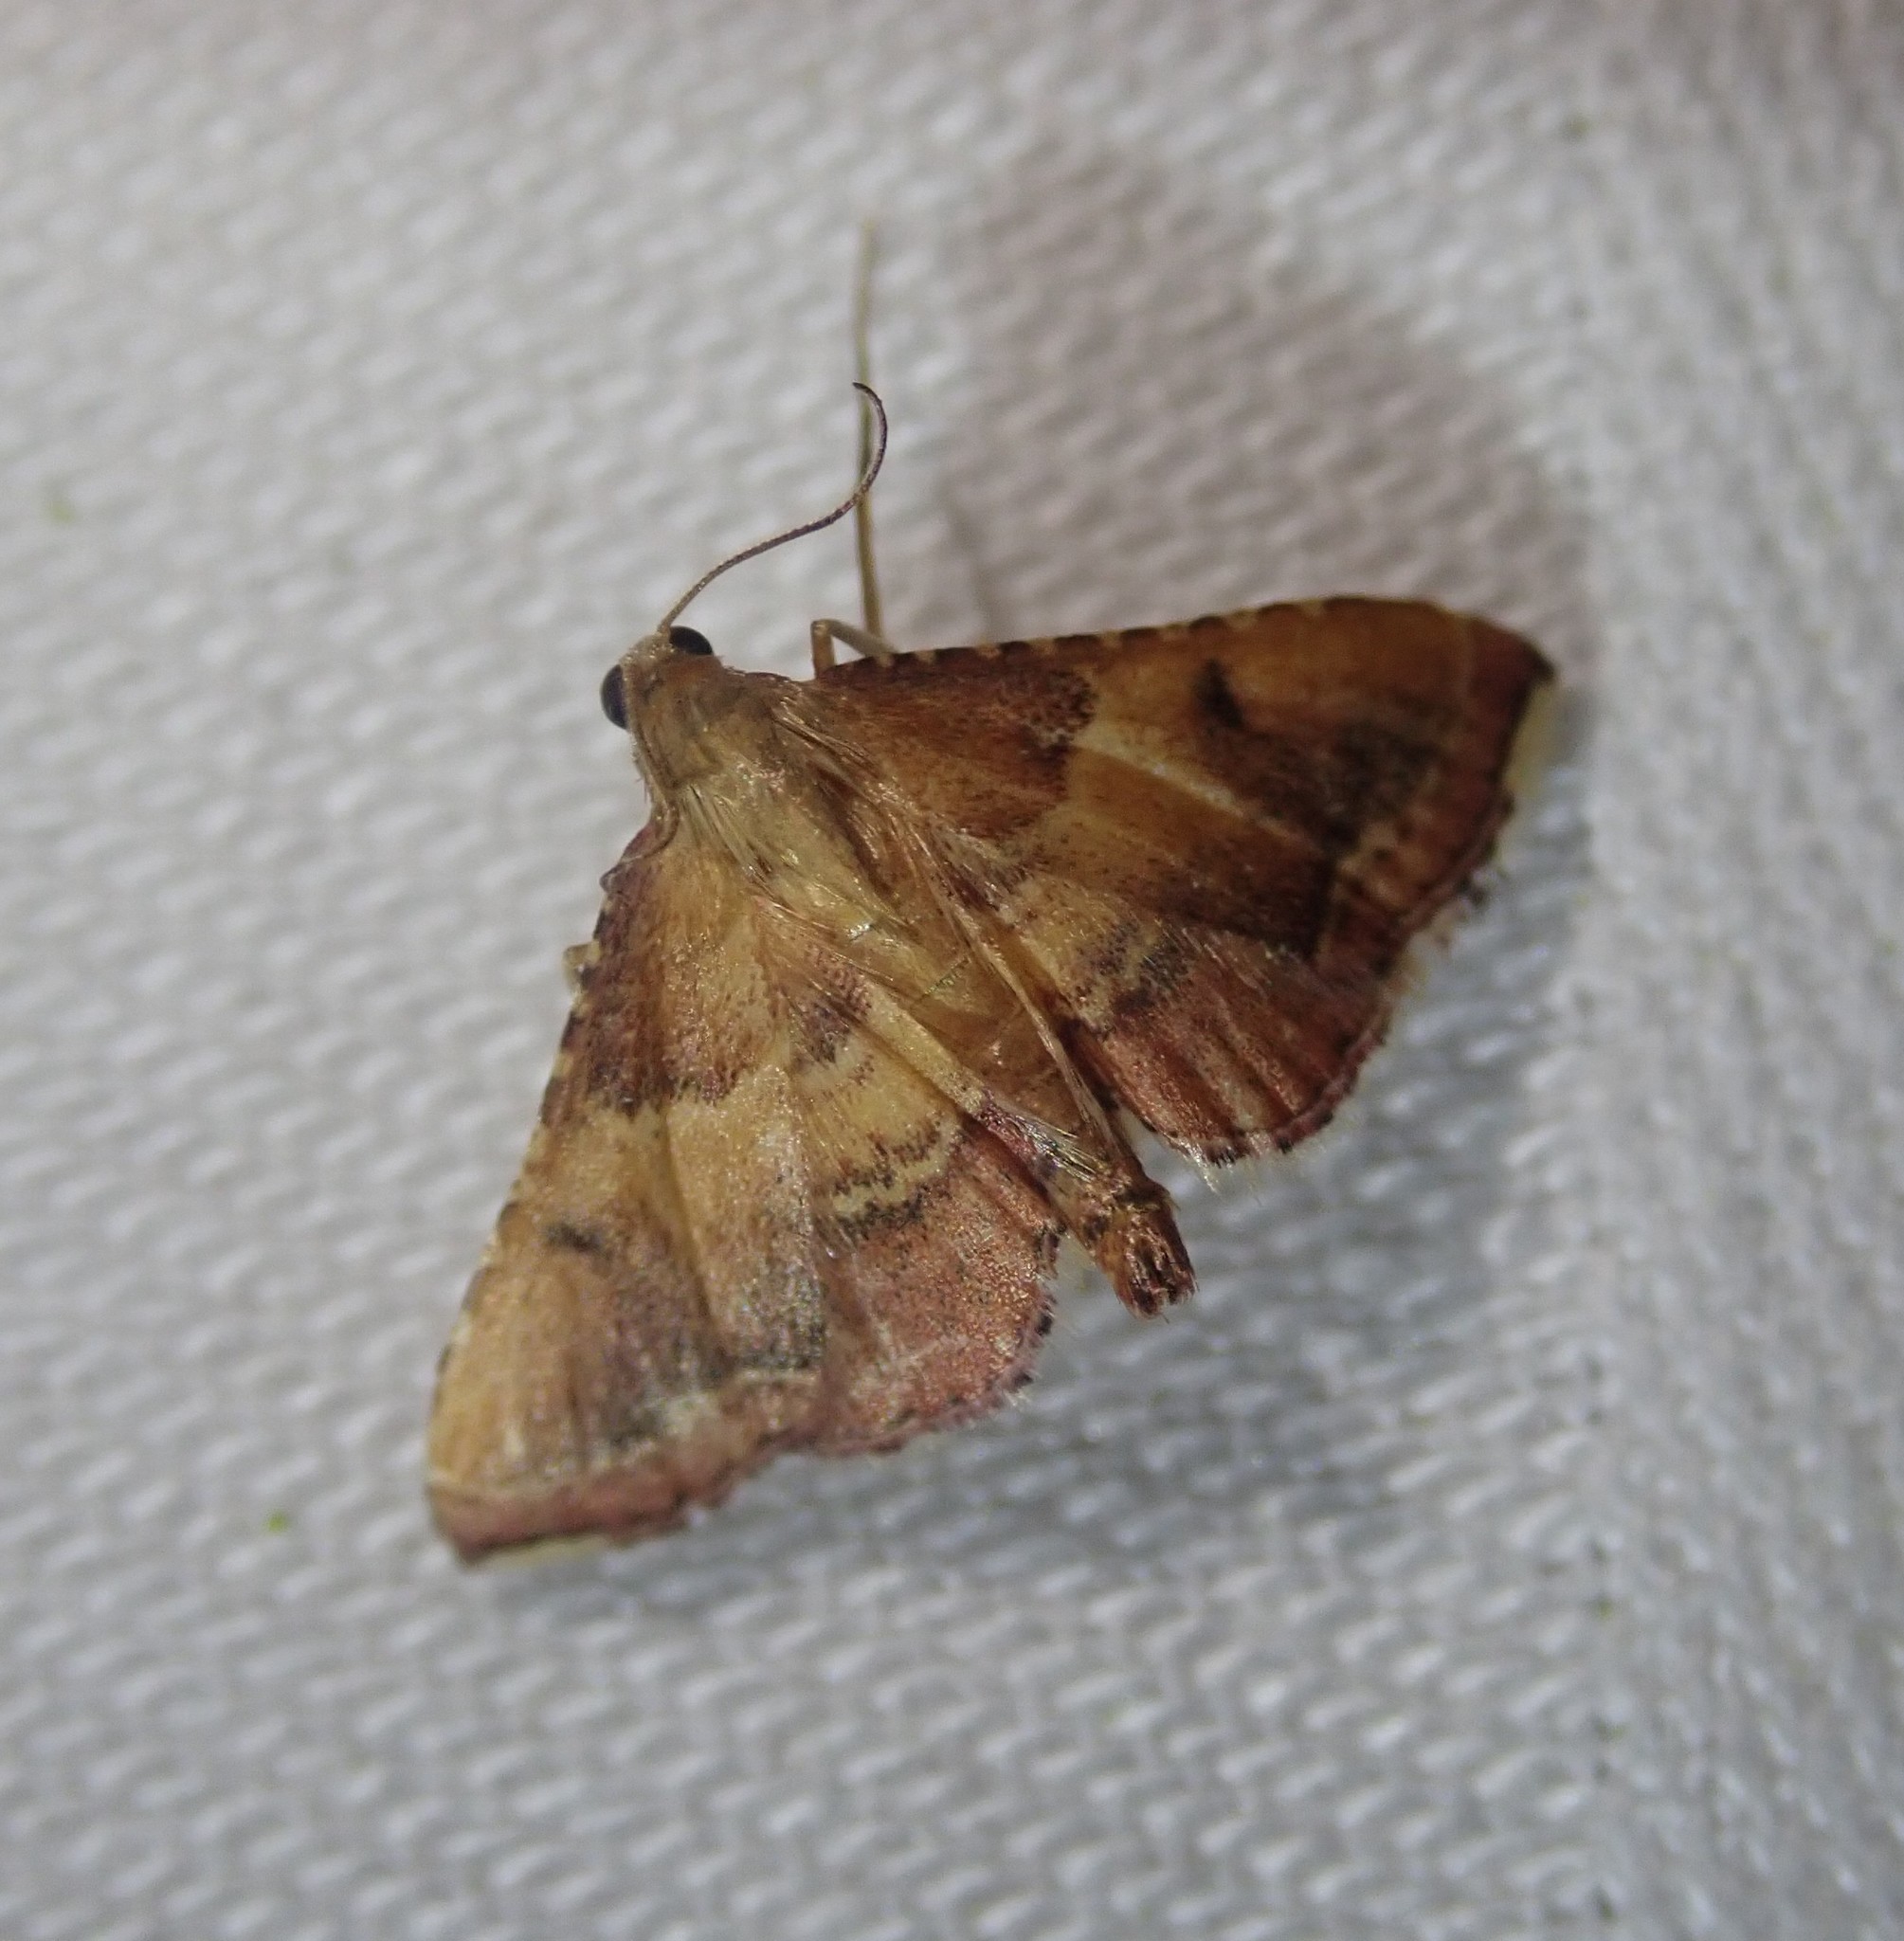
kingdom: Animalia
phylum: Arthropoda
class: Insecta
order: Lepidoptera
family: Pyralidae
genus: Endotricha
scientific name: Endotricha flammealis
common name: Rosy tabby
